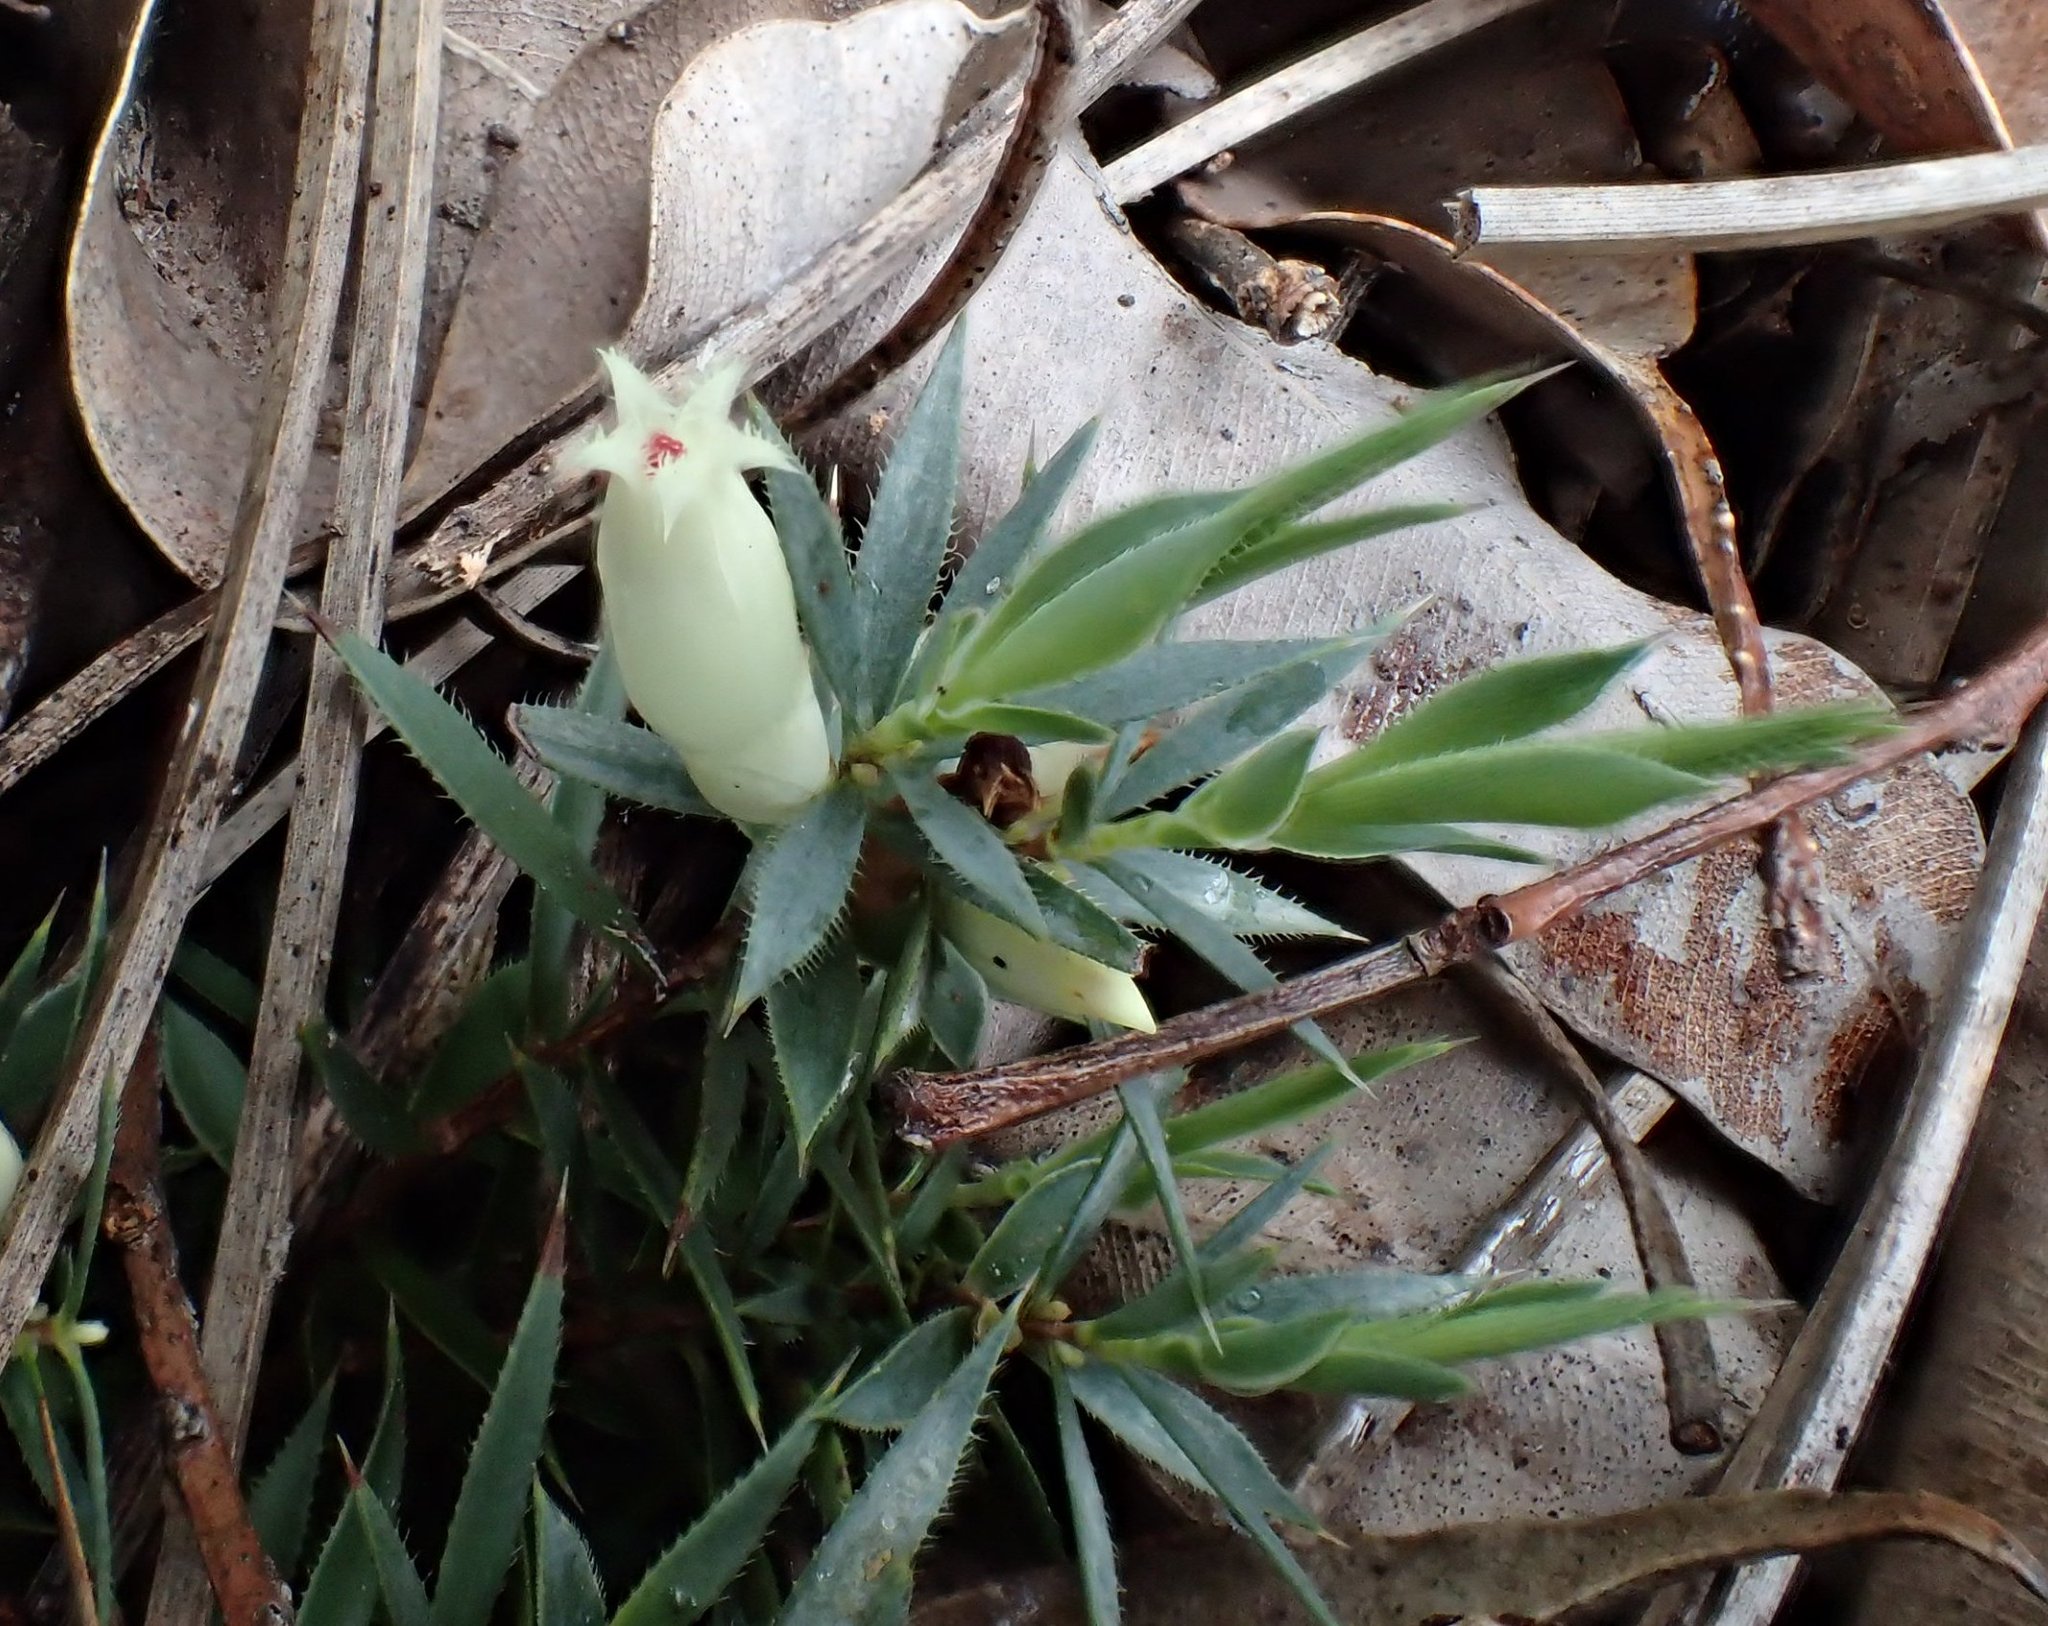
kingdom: Plantae
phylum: Tracheophyta
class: Magnoliopsida
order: Ericales
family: Ericaceae
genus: Styphelia
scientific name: Styphelia pallida
